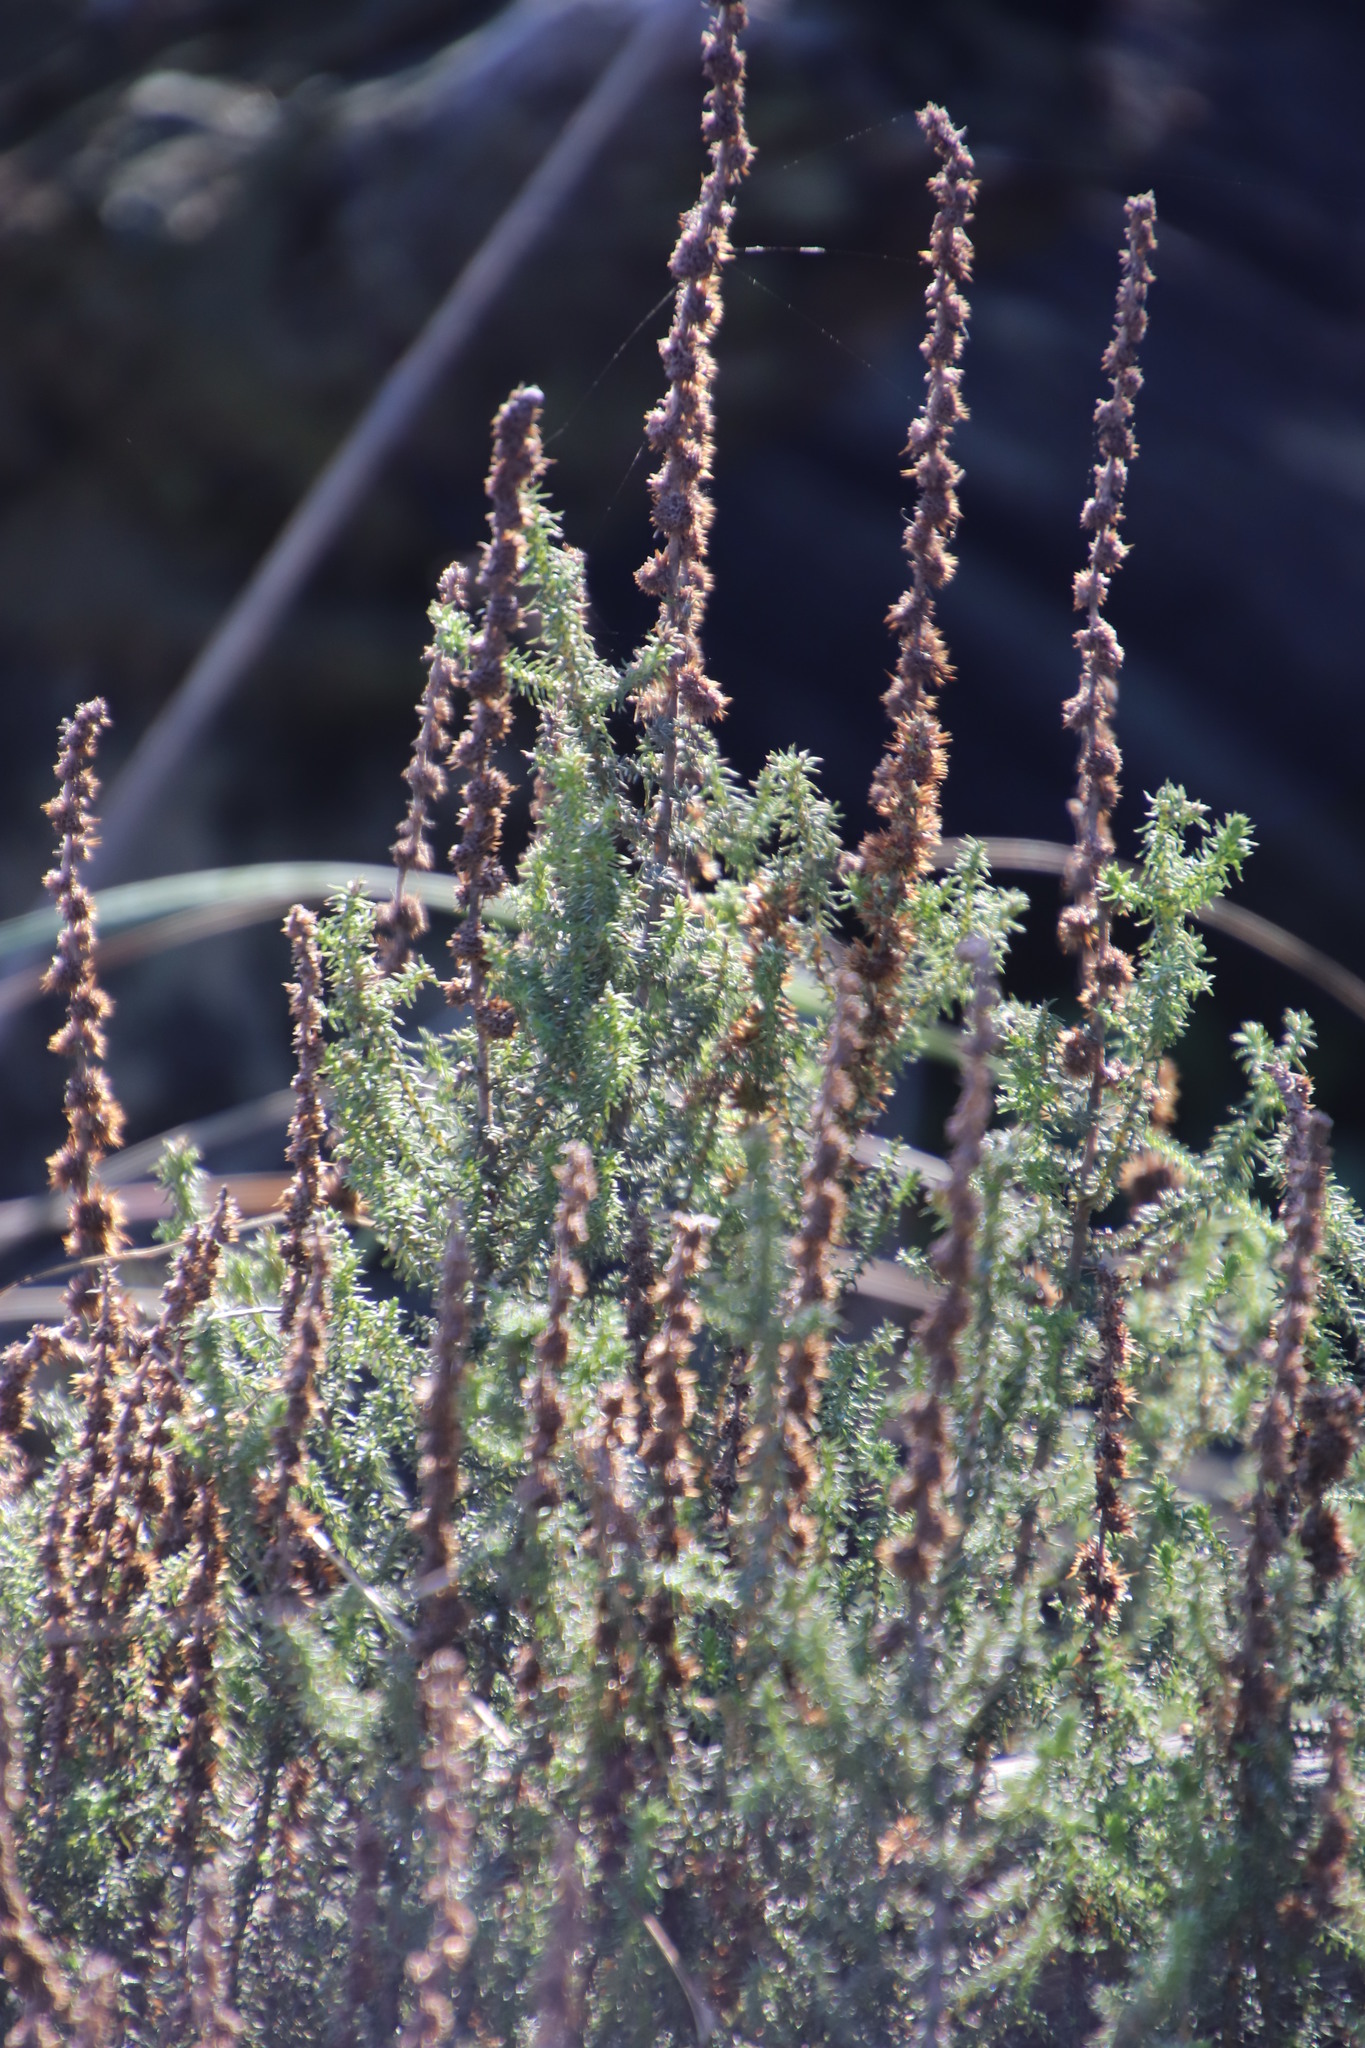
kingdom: Plantae
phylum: Tracheophyta
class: Magnoliopsida
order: Asterales
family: Asteraceae
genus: Seriphium
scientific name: Seriphium cinereum
